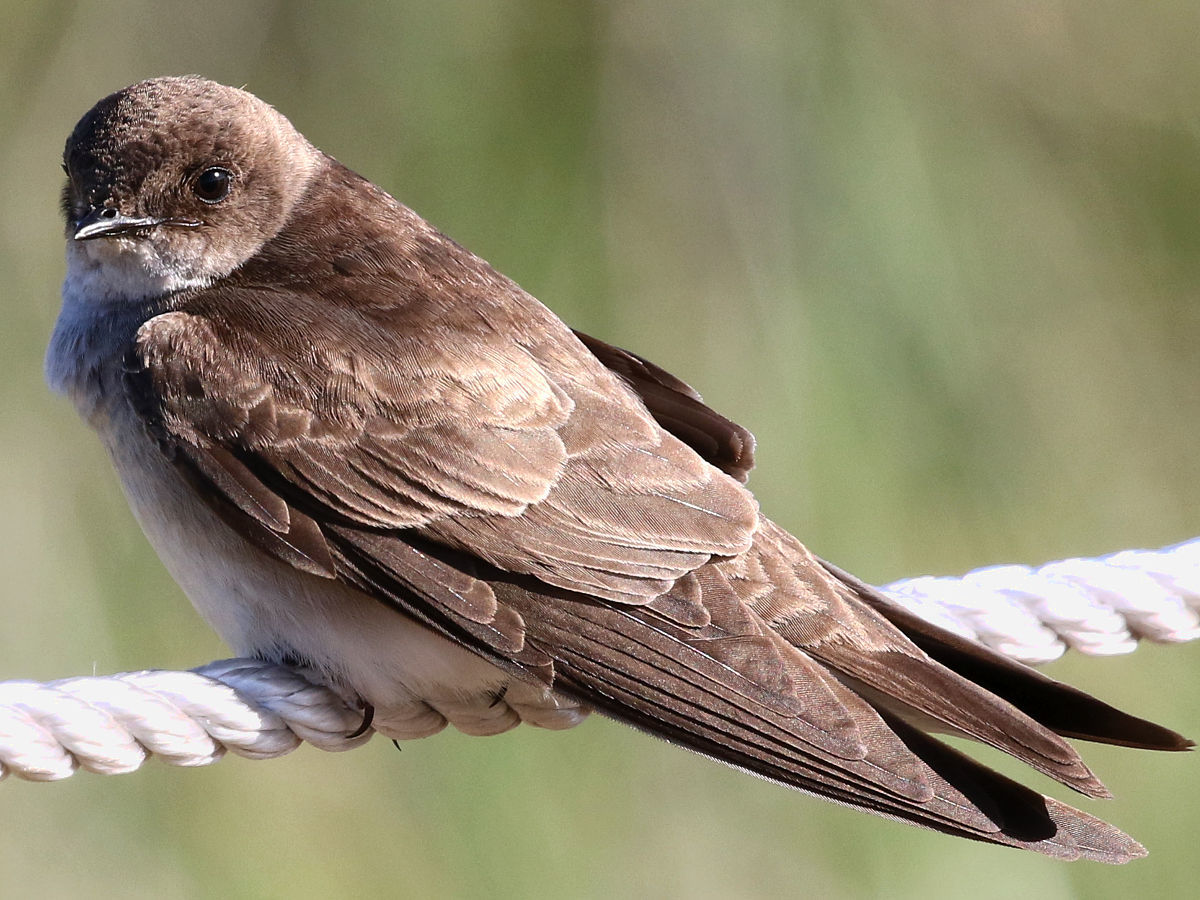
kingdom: Animalia
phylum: Chordata
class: Aves
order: Passeriformes
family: Hirundinidae
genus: Stelgidopteryx
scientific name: Stelgidopteryx serripennis
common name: Northern rough-winged swallow
